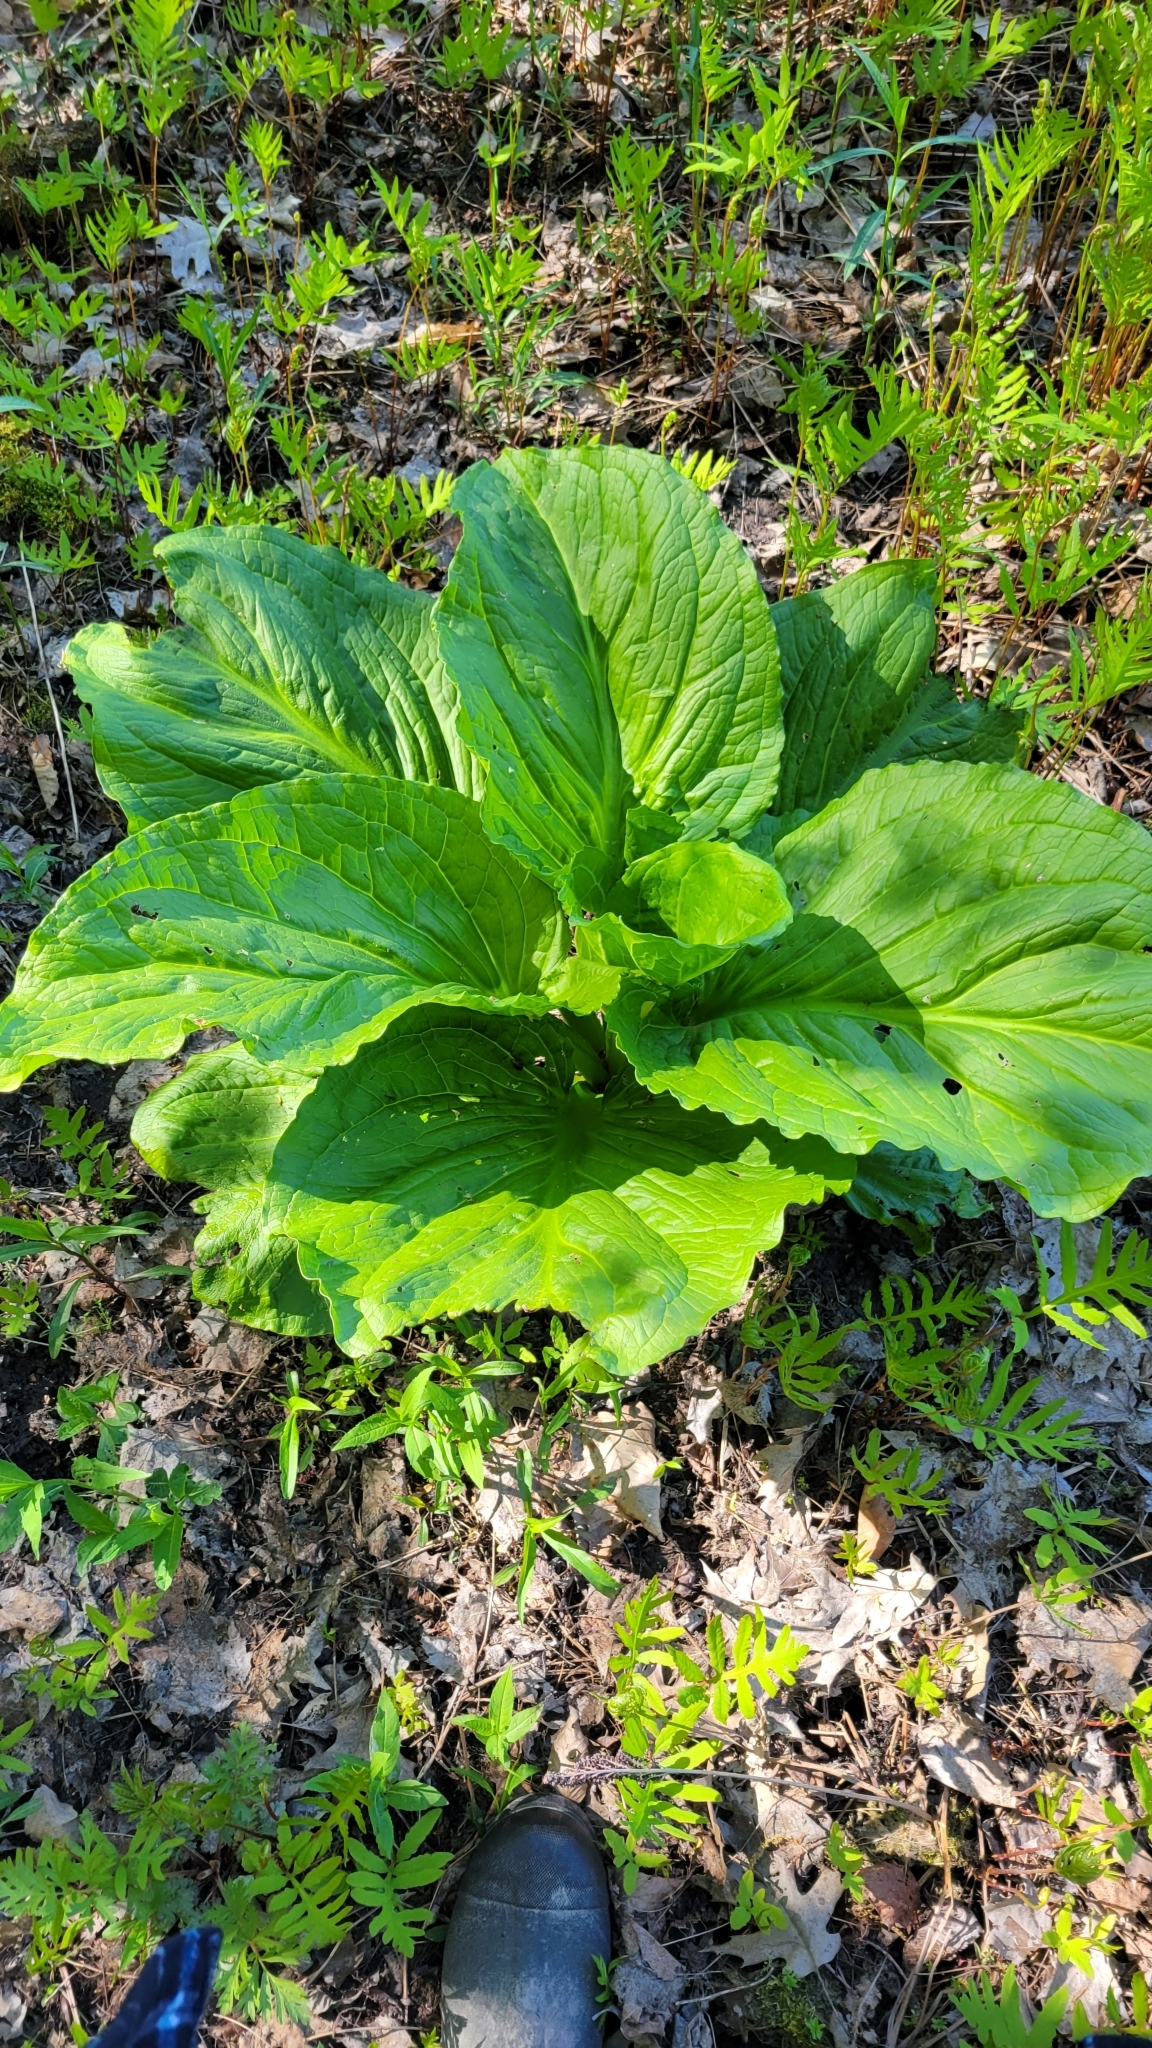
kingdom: Plantae
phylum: Tracheophyta
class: Liliopsida
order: Alismatales
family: Araceae
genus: Symplocarpus
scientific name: Symplocarpus foetidus
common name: Eastern skunk cabbage
